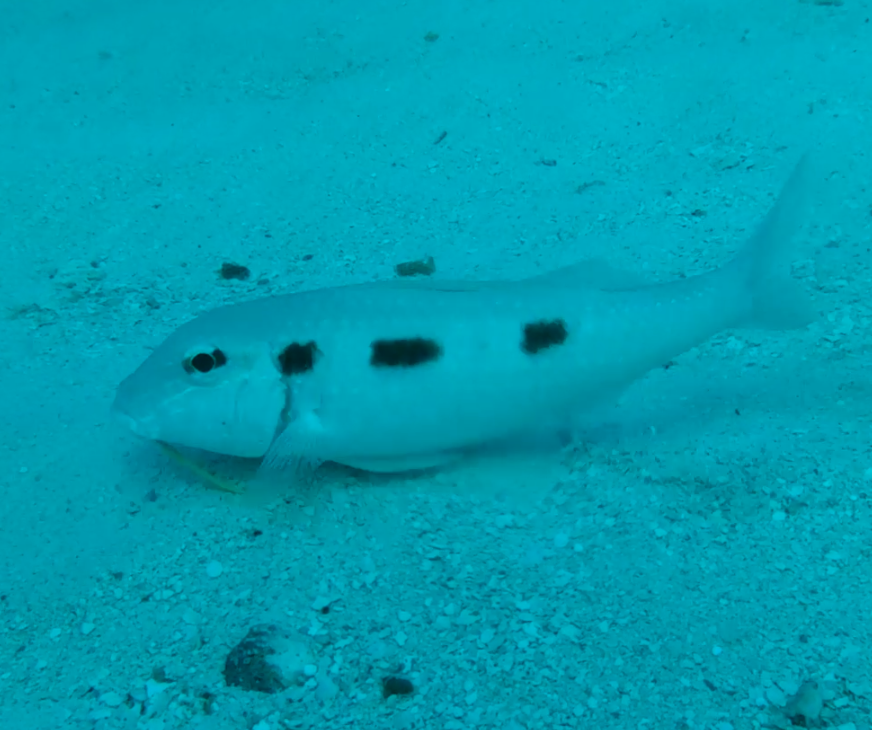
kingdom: Animalia
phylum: Chordata
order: Perciformes
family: Mullidae
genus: Pseudupeneus
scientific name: Pseudupeneus maculatus
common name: Spotted goatfish
